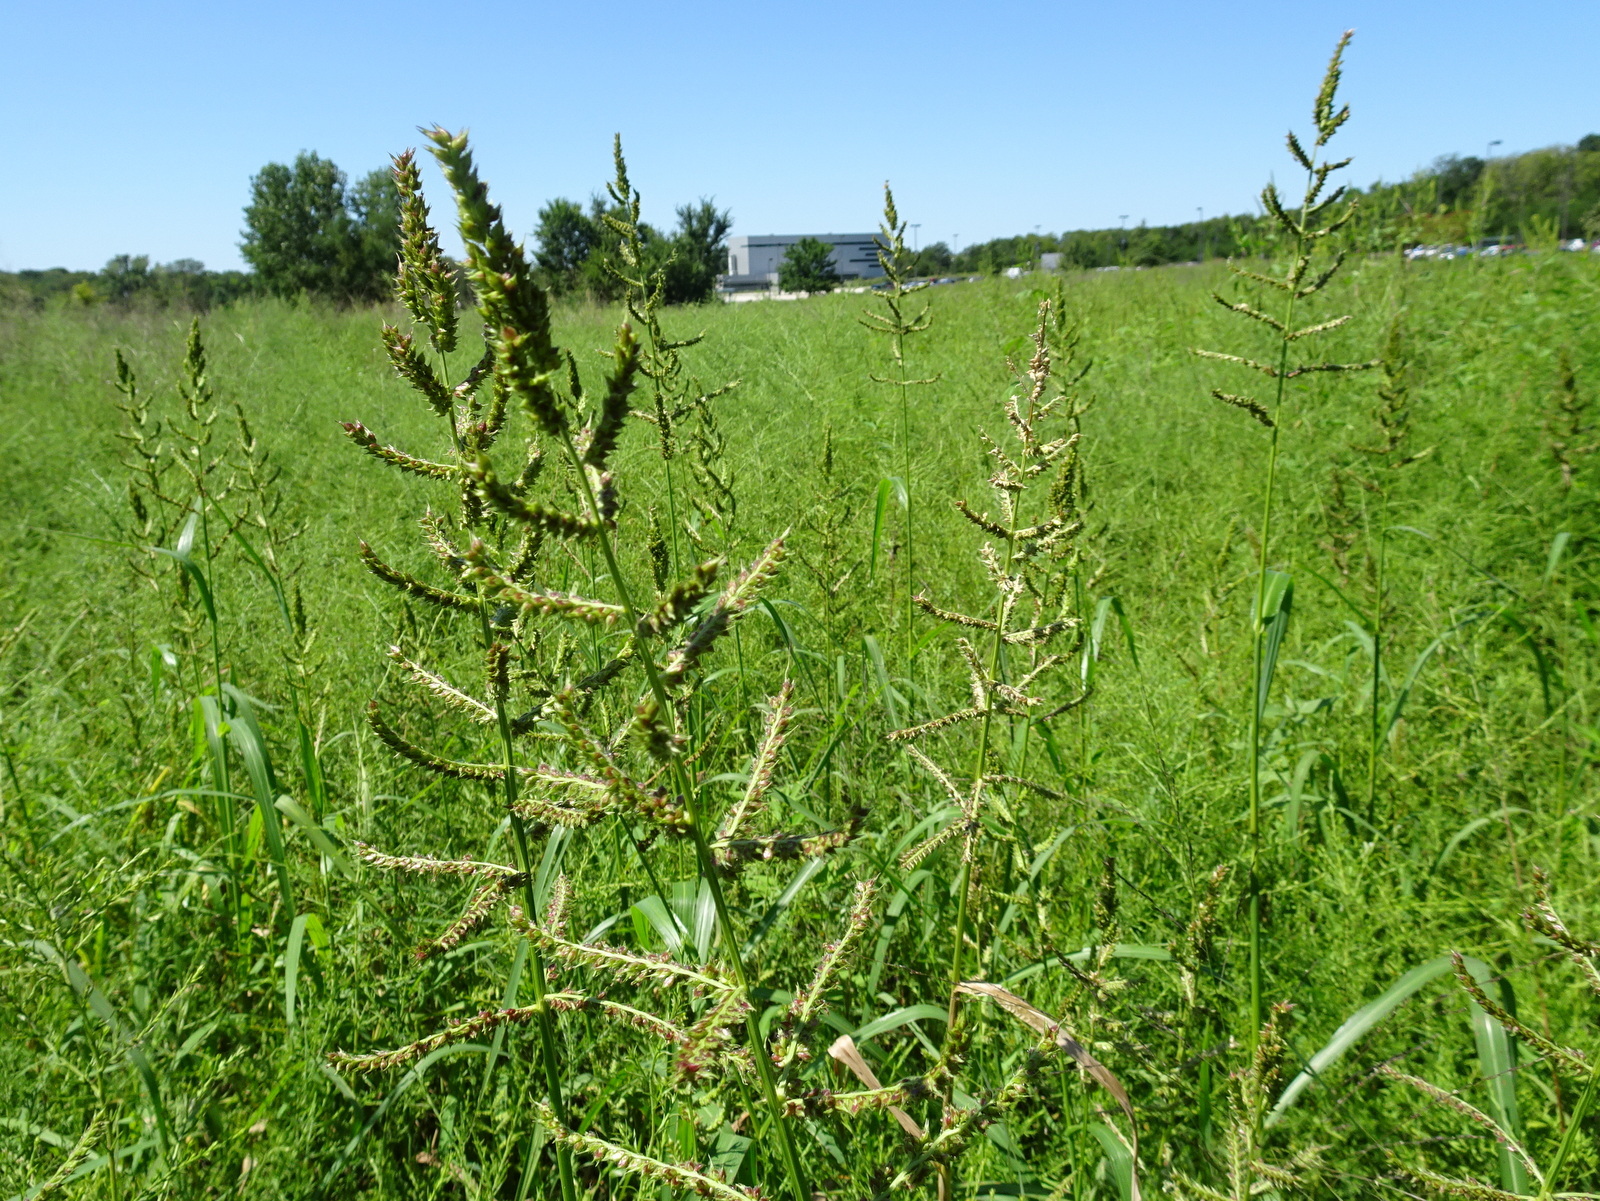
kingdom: Plantae
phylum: Tracheophyta
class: Liliopsida
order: Poales
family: Poaceae
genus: Echinochloa
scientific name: Echinochloa
